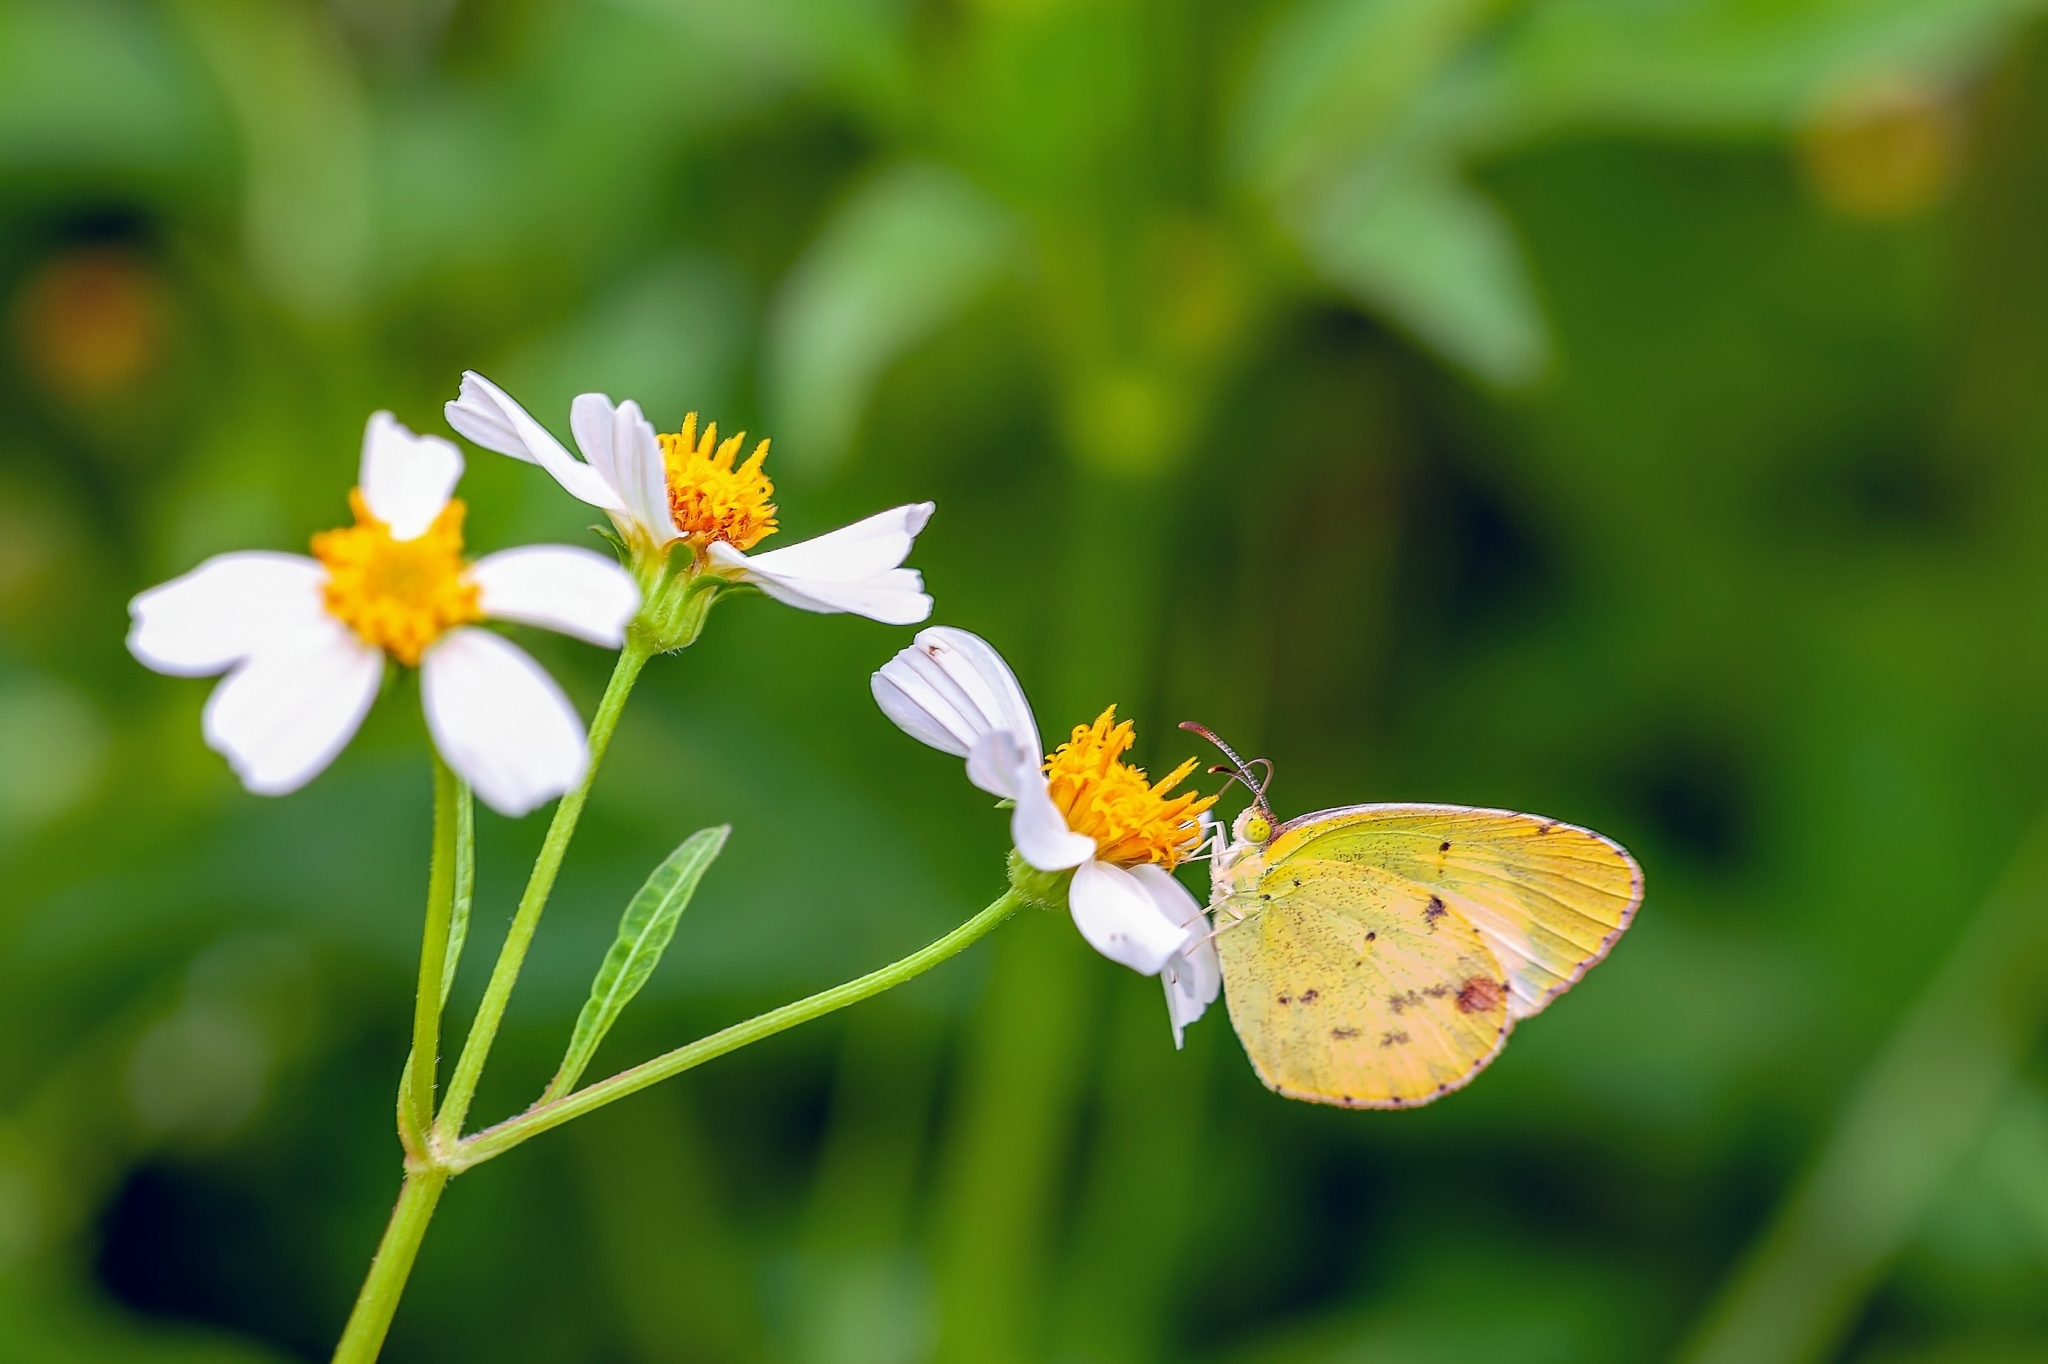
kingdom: Animalia
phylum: Arthropoda
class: Insecta
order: Lepidoptera
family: Pieridae
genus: Pyrisitia
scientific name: Pyrisitia lisa
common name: Little yellow
